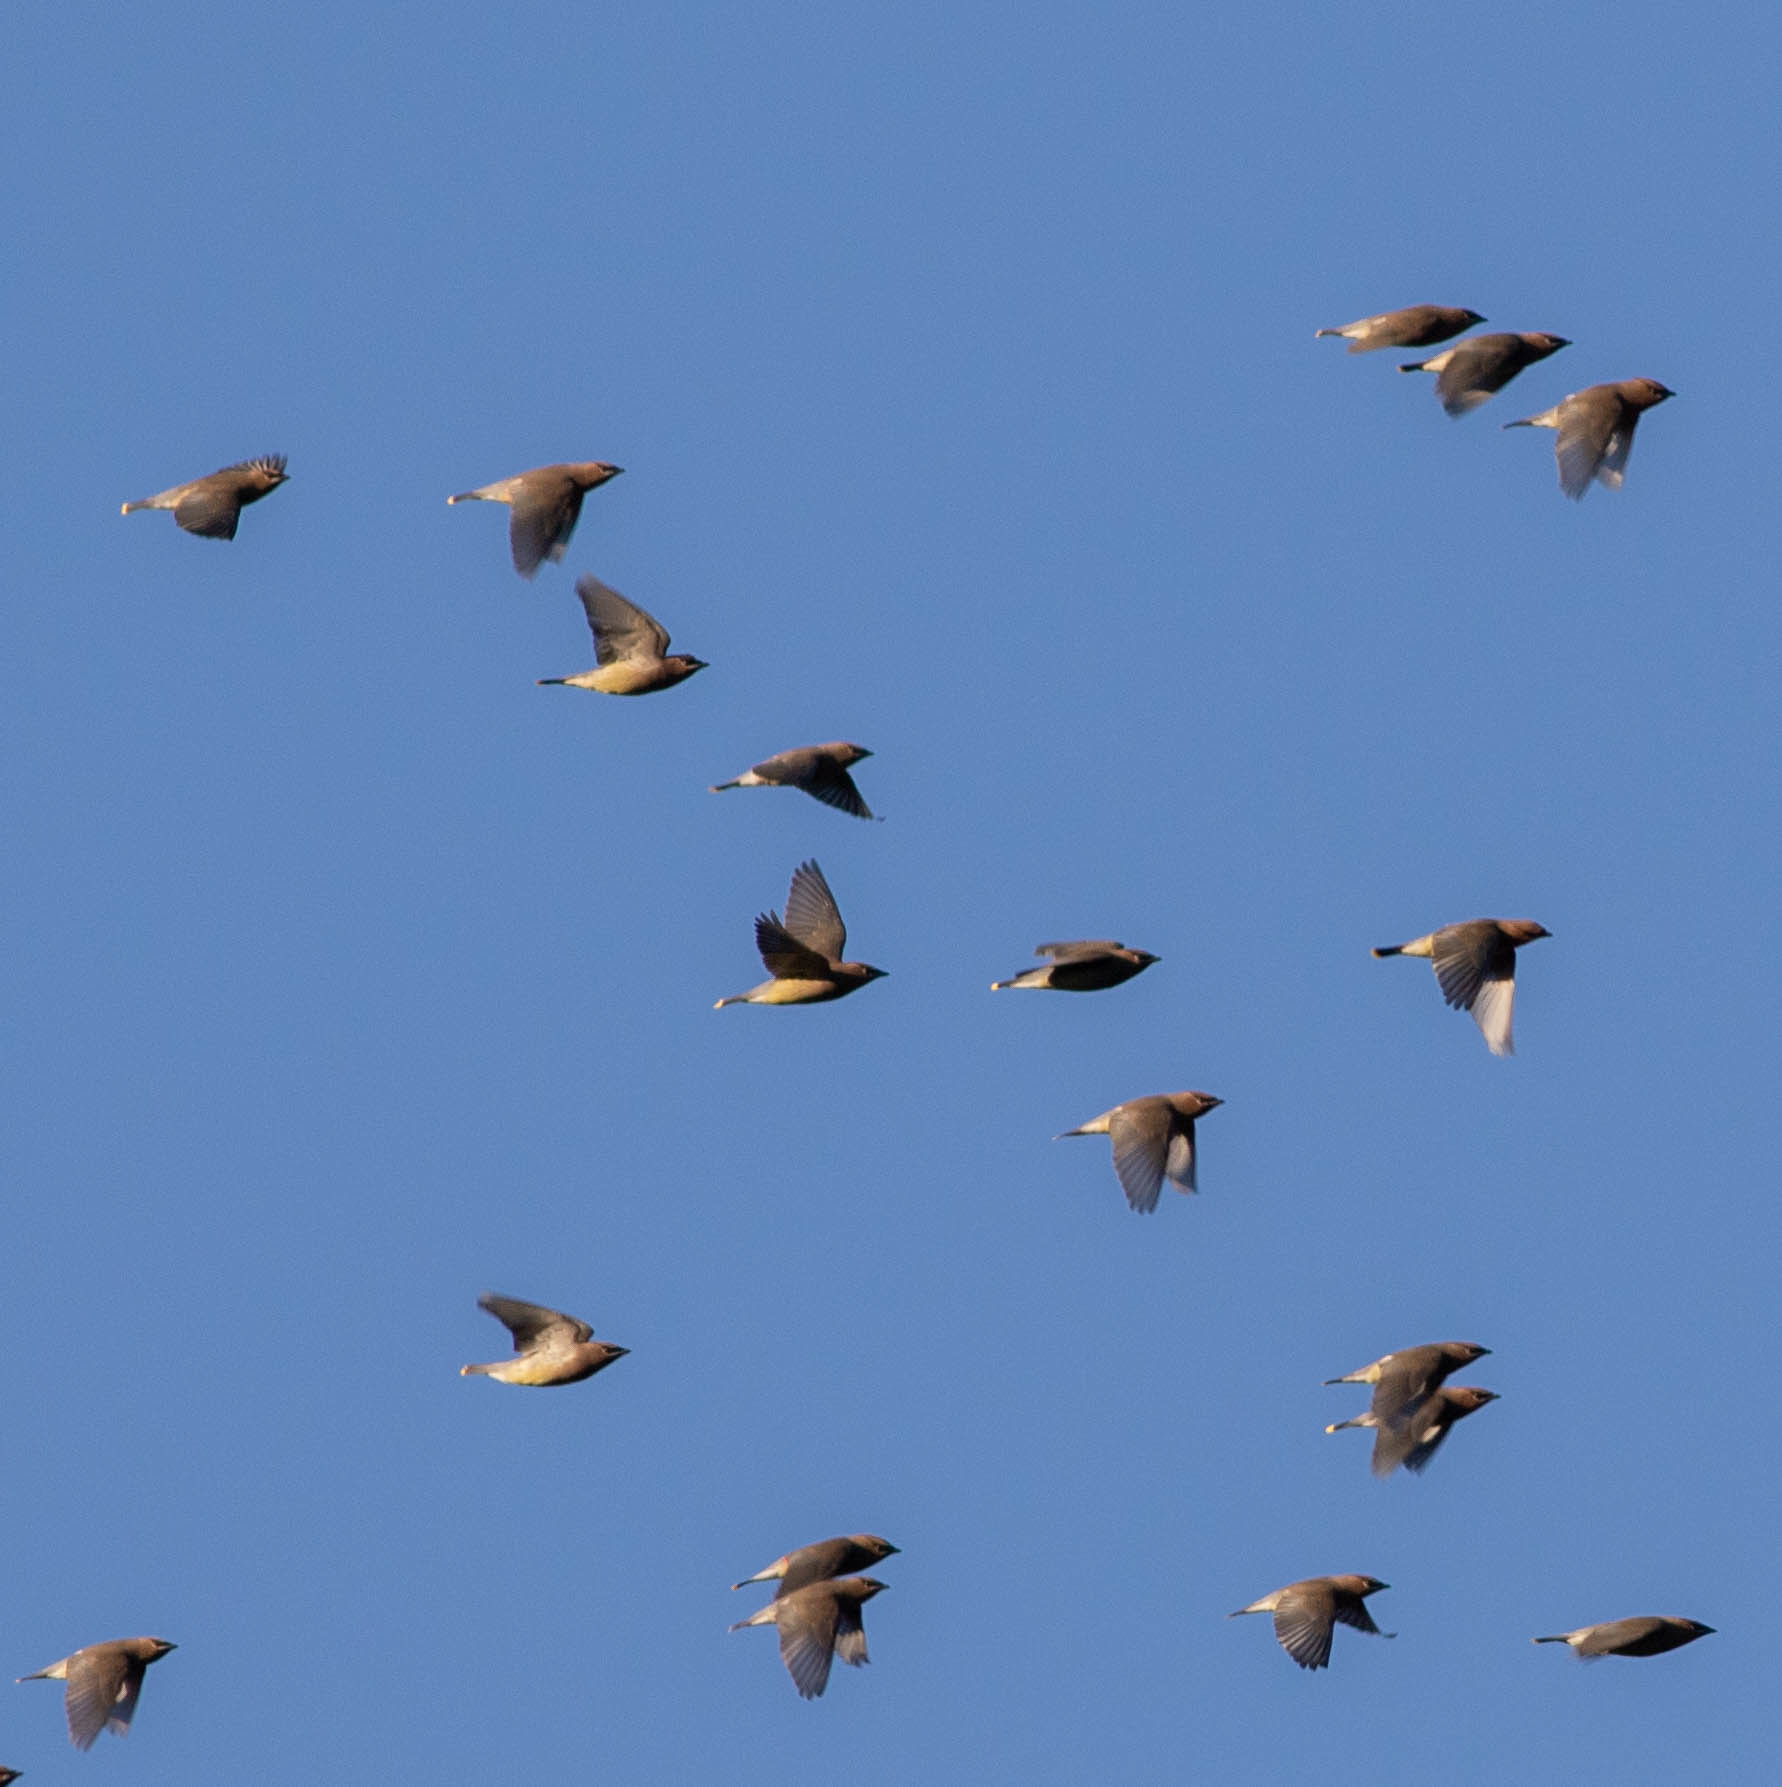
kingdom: Animalia
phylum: Chordata
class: Aves
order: Passeriformes
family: Bombycillidae
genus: Bombycilla
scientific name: Bombycilla cedrorum
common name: Cedar waxwing
